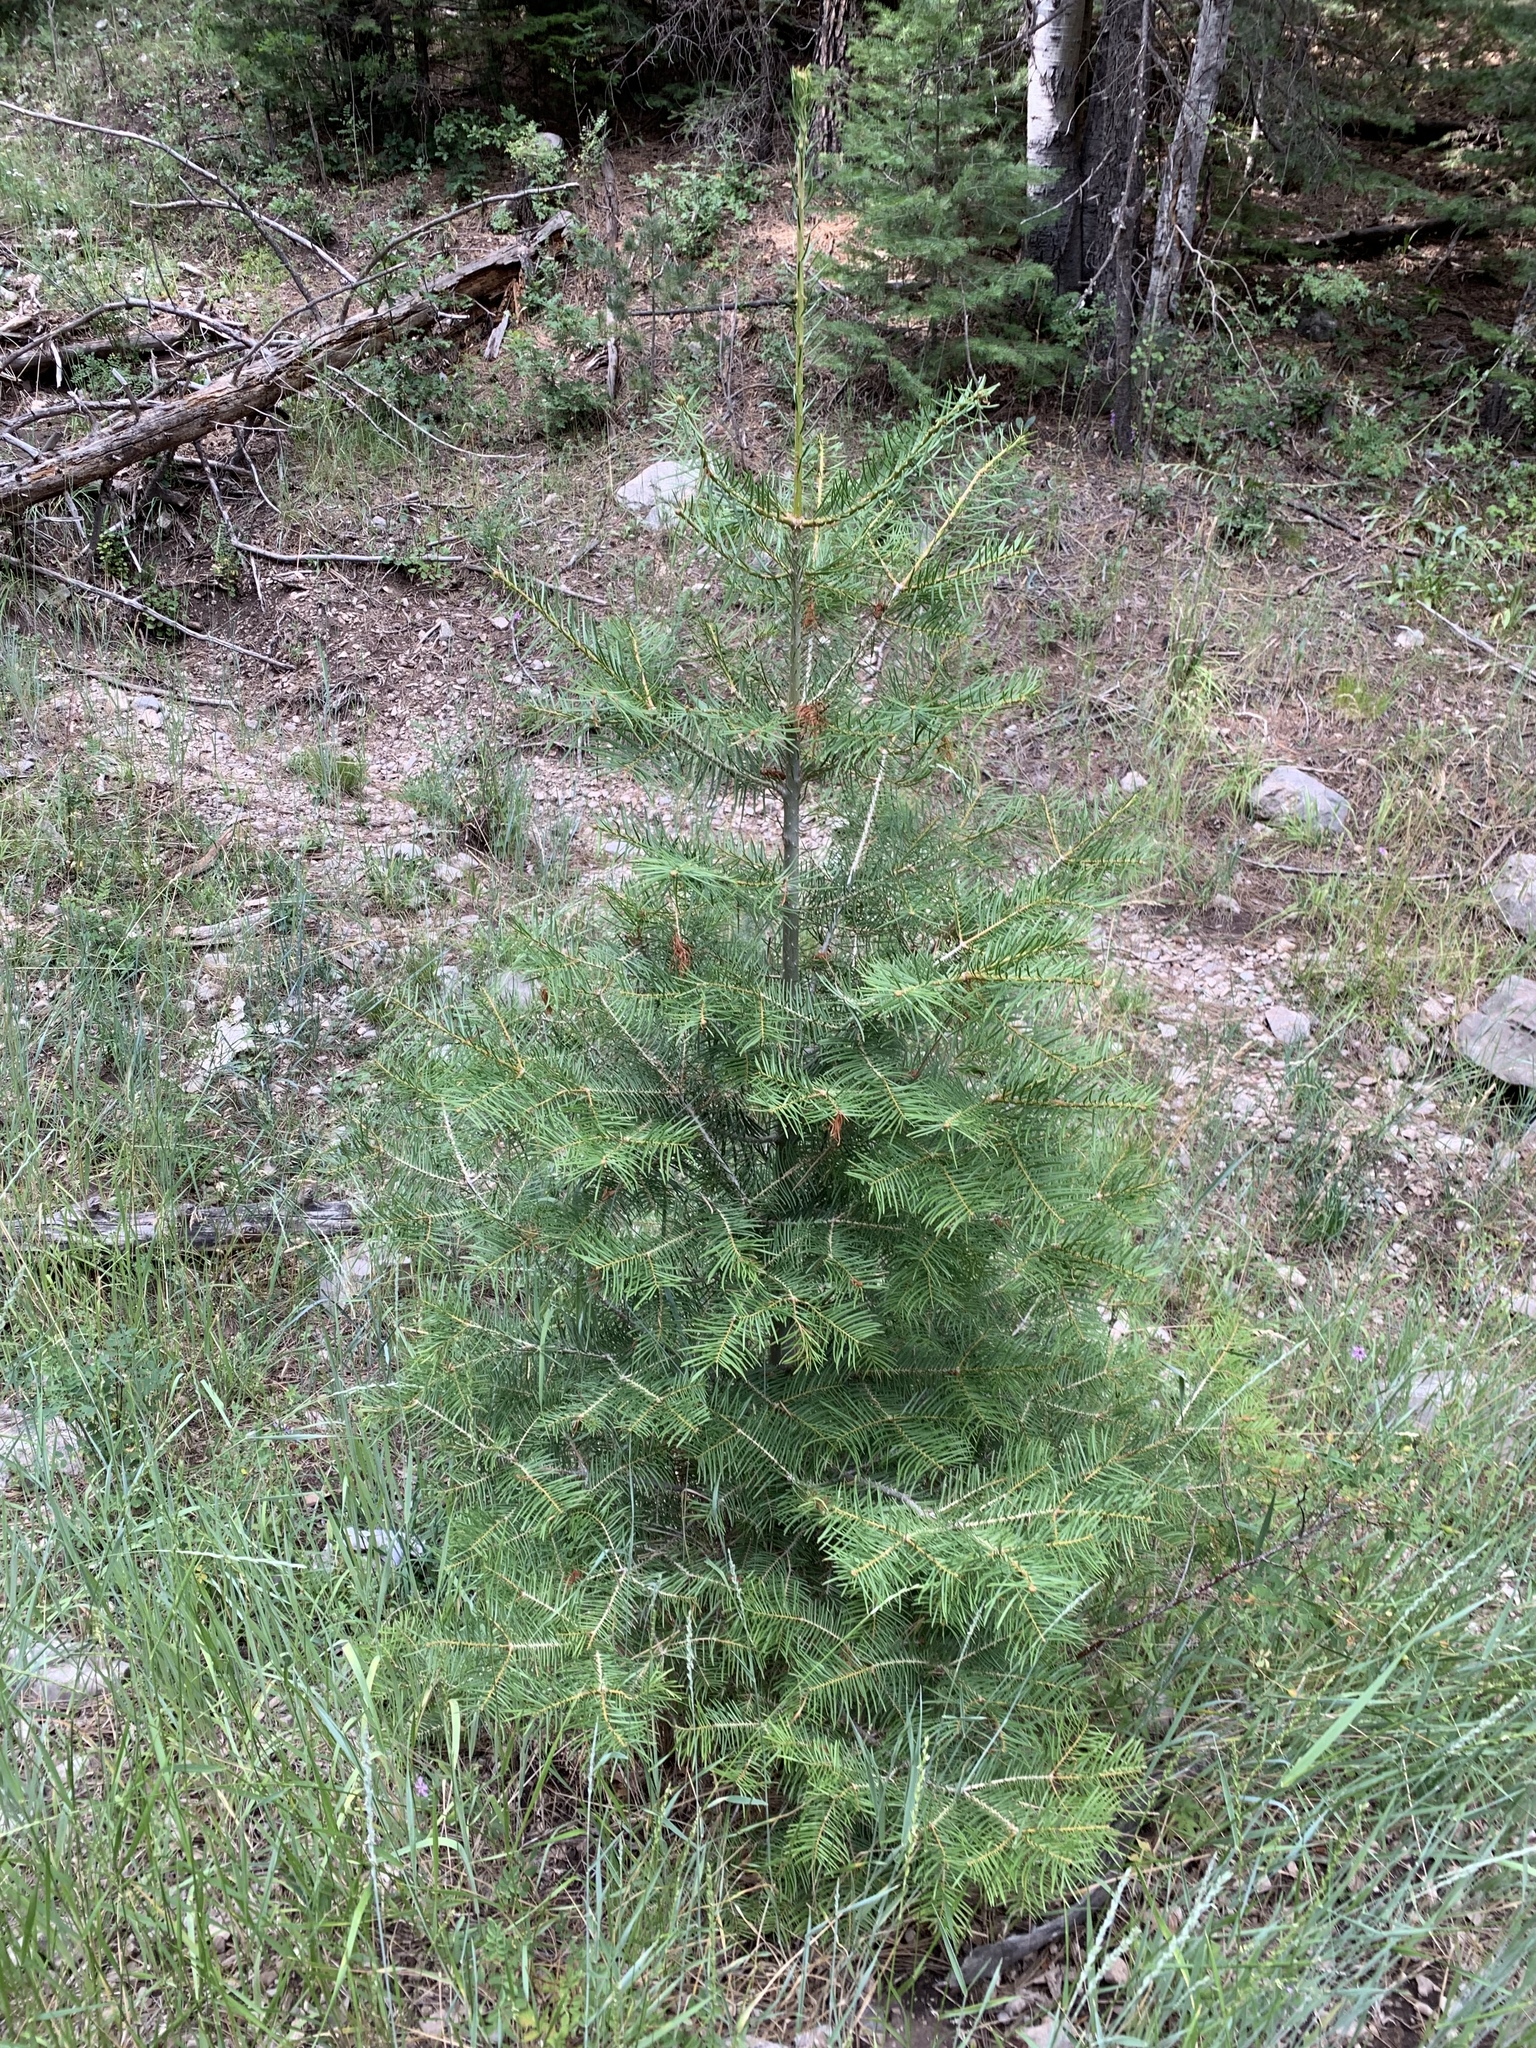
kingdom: Plantae
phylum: Tracheophyta
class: Pinopsida
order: Pinales
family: Pinaceae
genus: Abies
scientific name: Abies concolor
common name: Colorado fir
